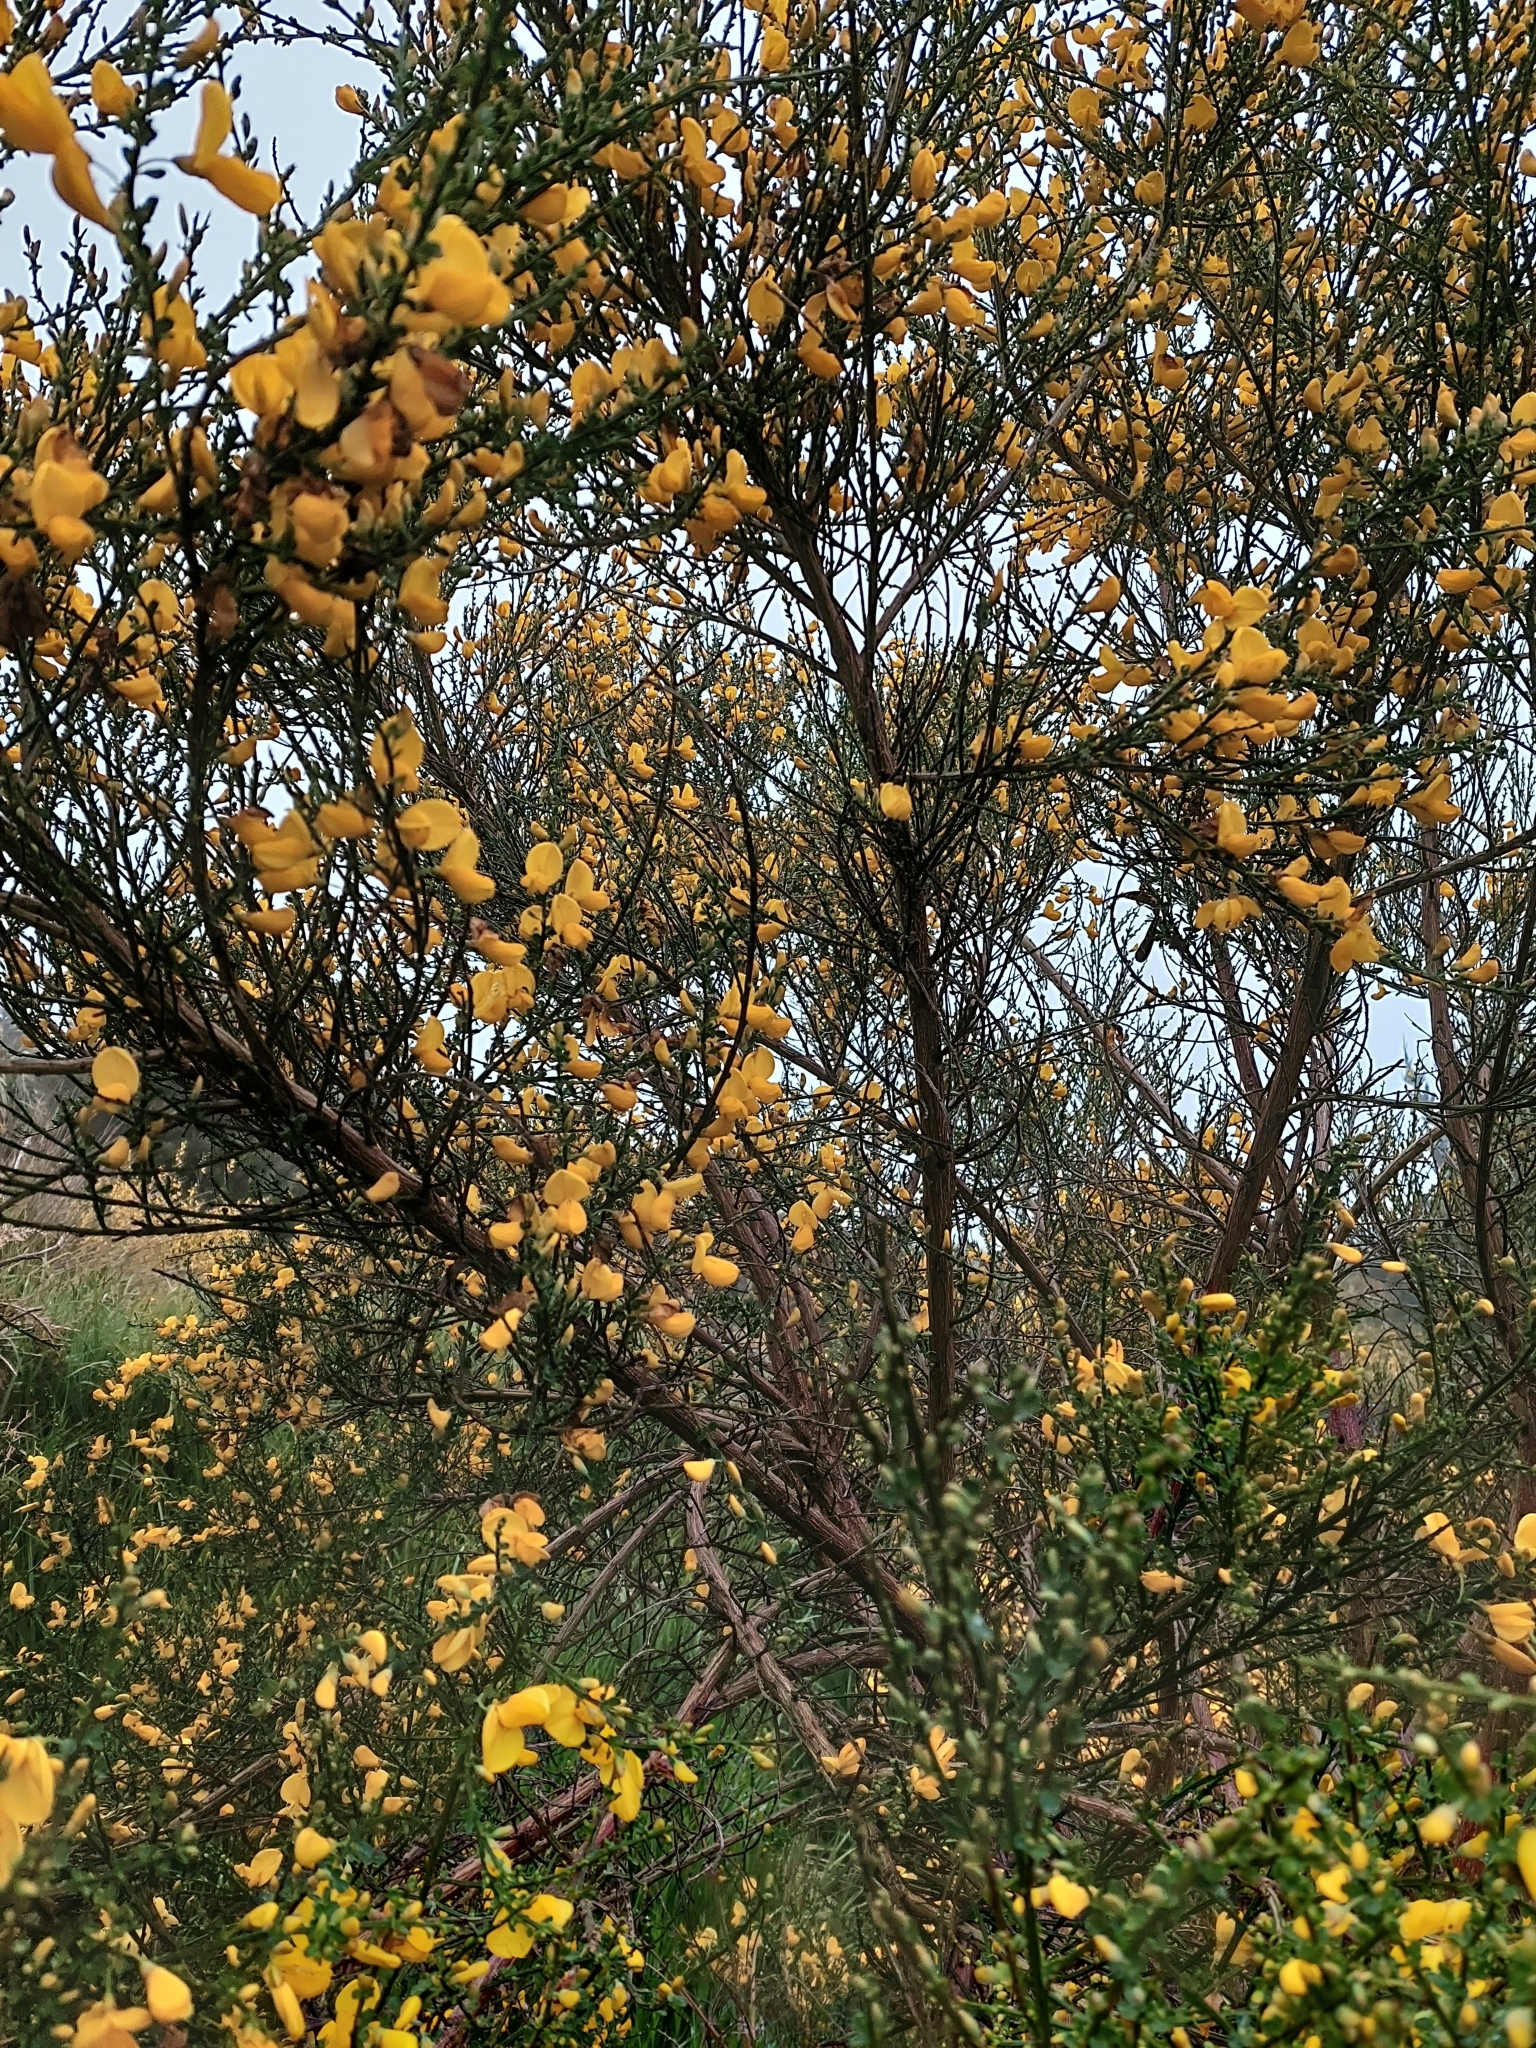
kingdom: Plantae
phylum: Tracheophyta
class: Magnoliopsida
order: Fabales
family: Fabaceae
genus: Cytisus
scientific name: Cytisus scoparius
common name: Scotch broom
